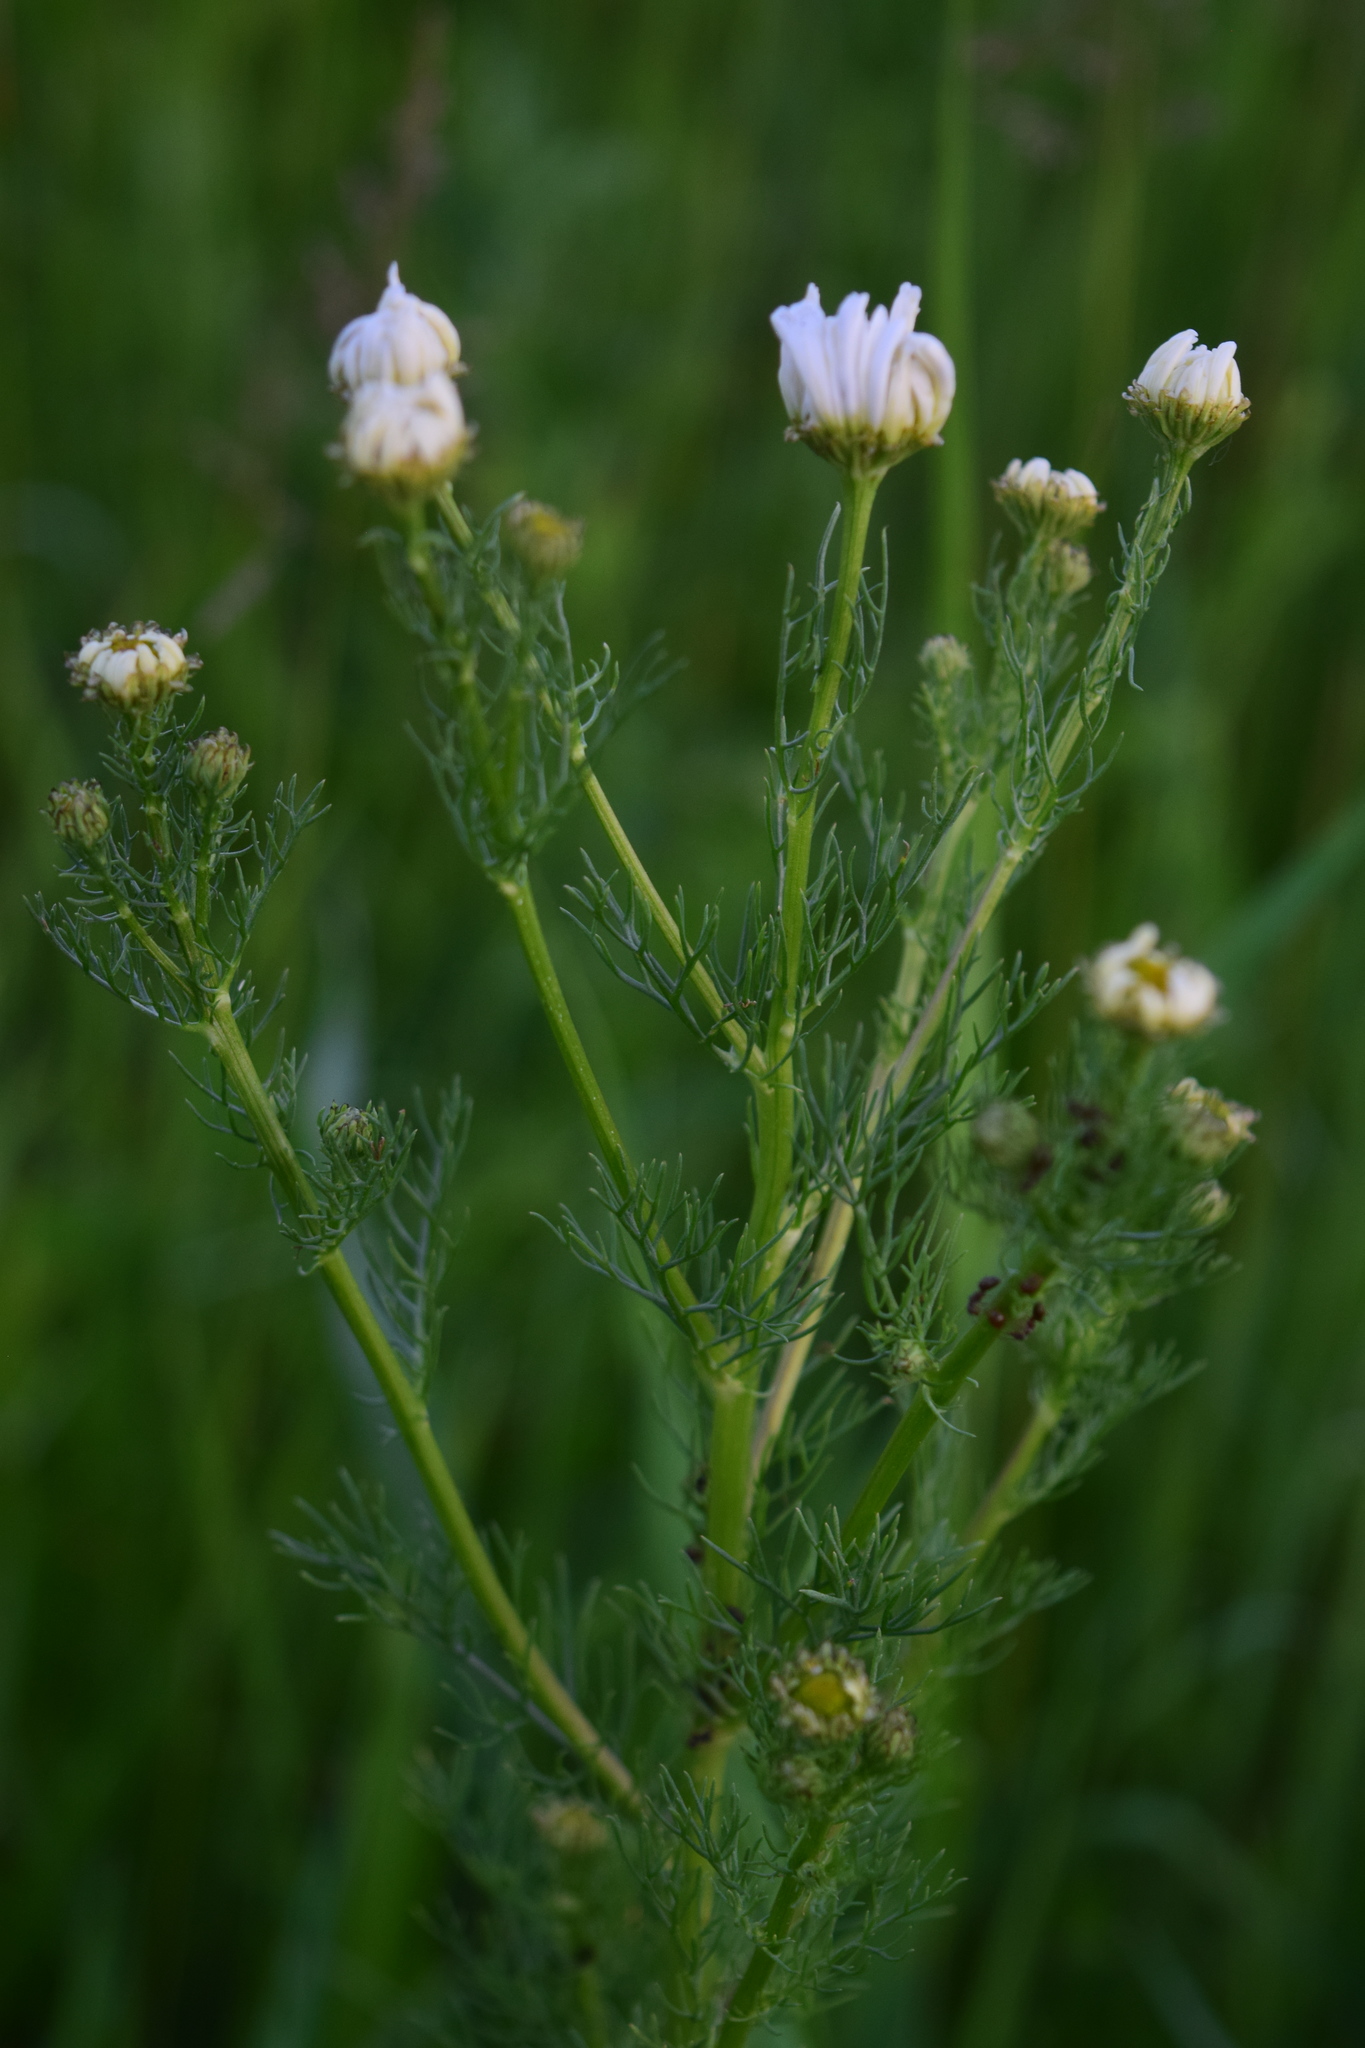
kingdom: Plantae
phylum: Tracheophyta
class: Magnoliopsida
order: Asterales
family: Asteraceae
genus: Tripleurospermum
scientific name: Tripleurospermum inodorum
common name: Scentless mayweed
